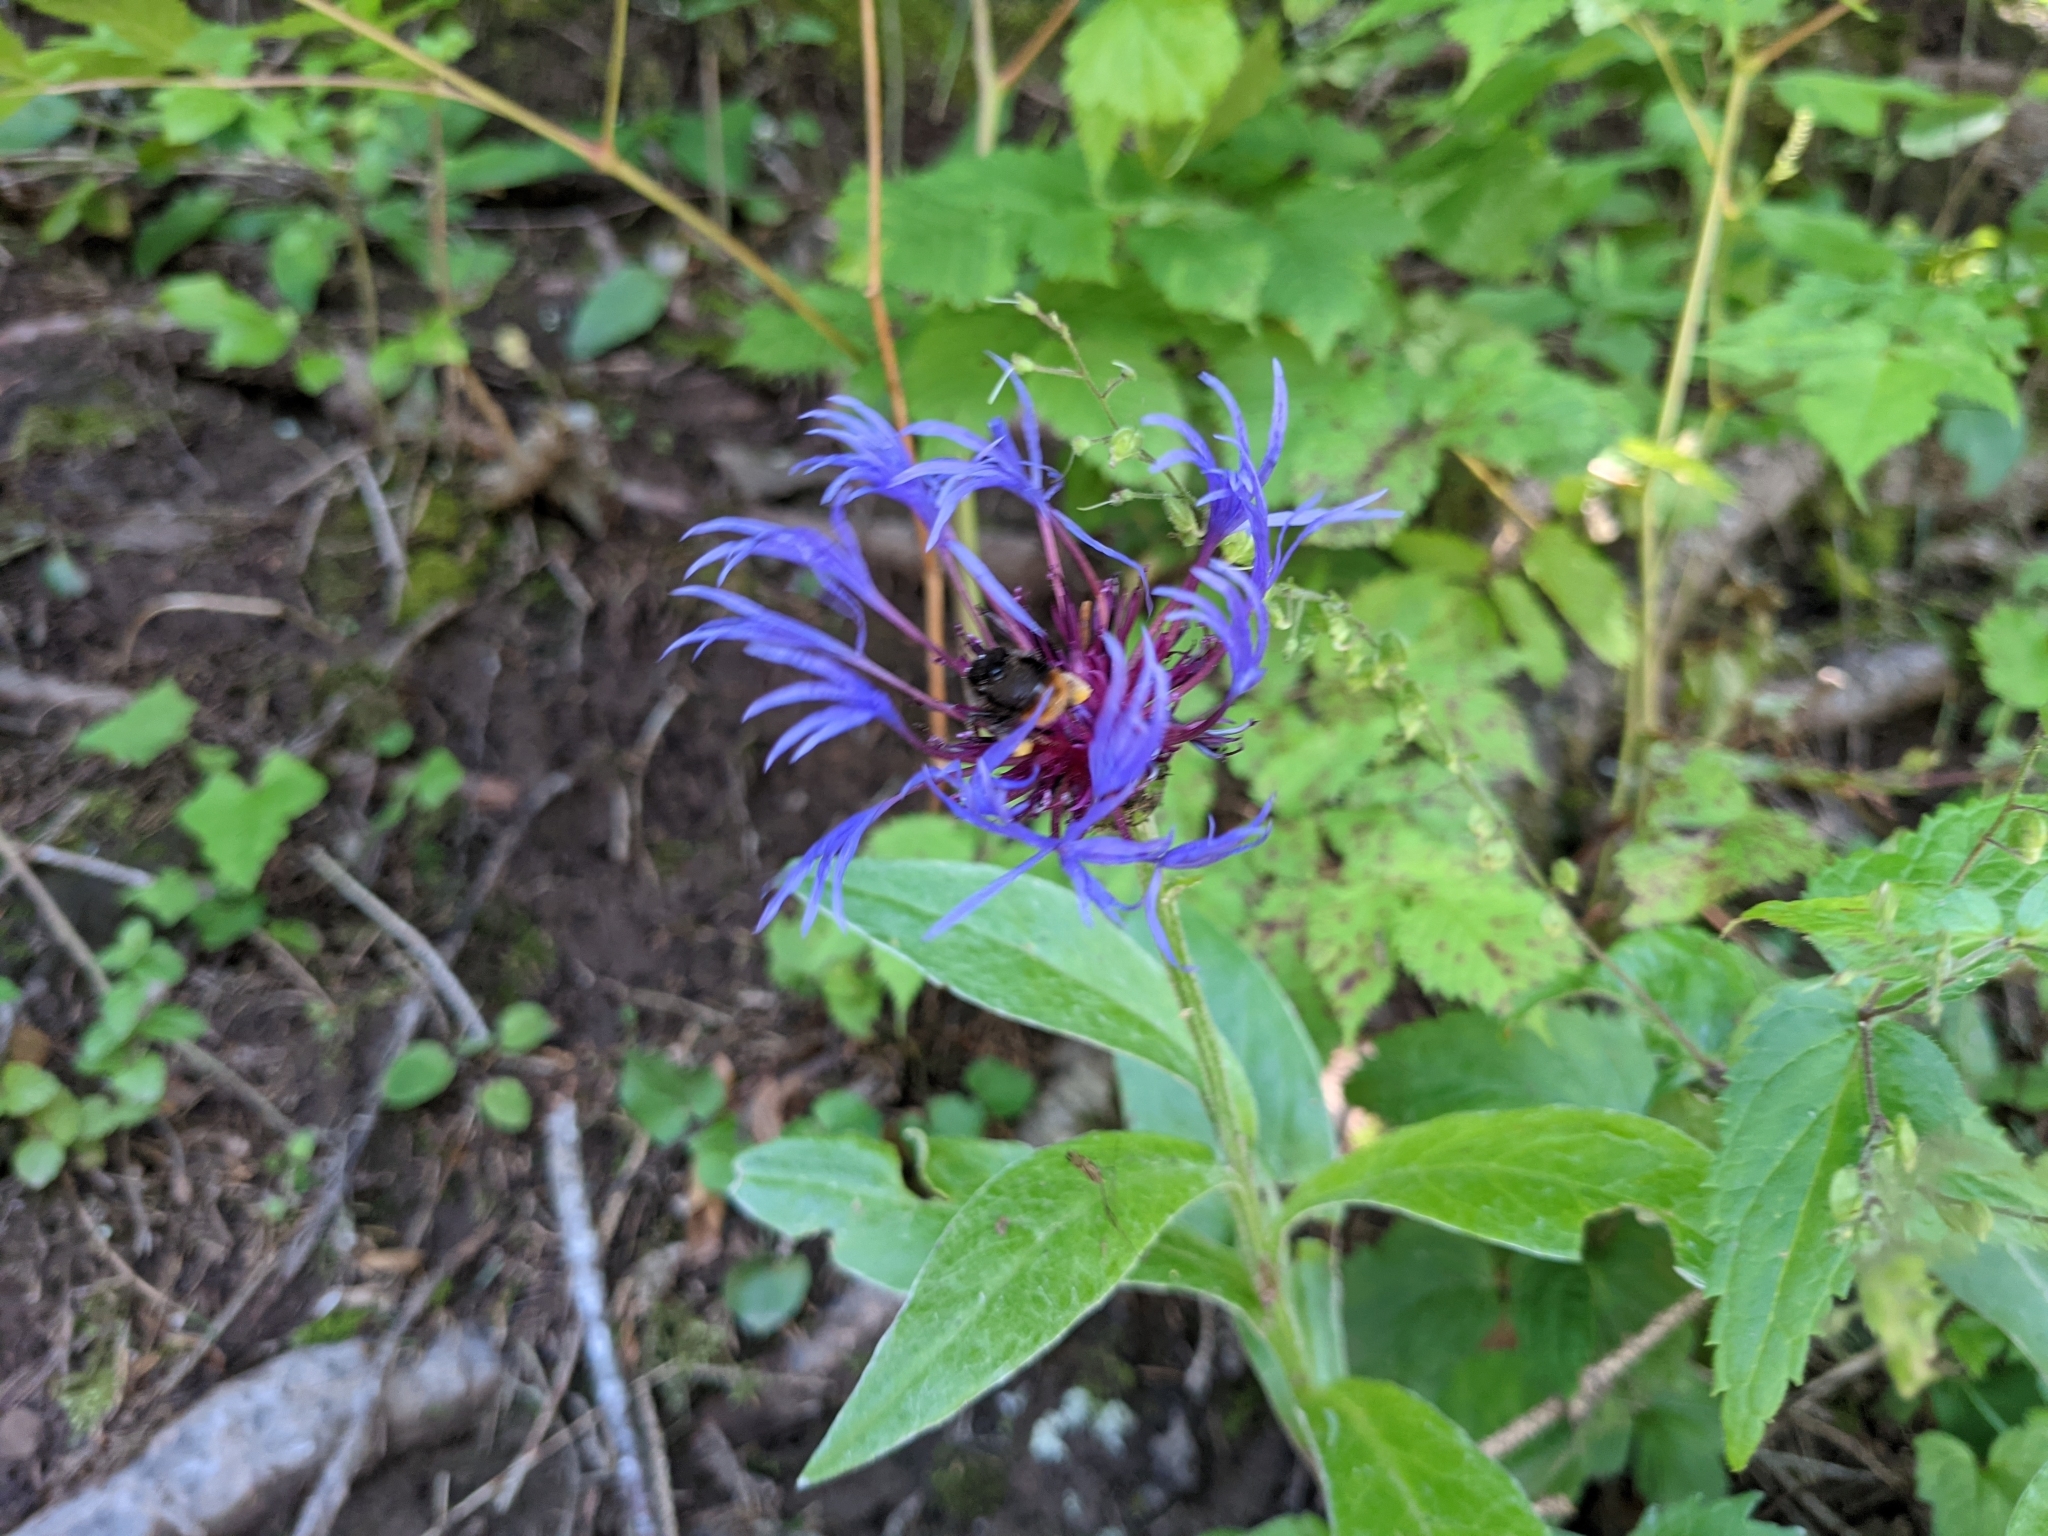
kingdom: Plantae
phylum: Tracheophyta
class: Magnoliopsida
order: Asterales
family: Asteraceae
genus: Centaurea
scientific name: Centaurea montana
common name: Perennial cornflower
